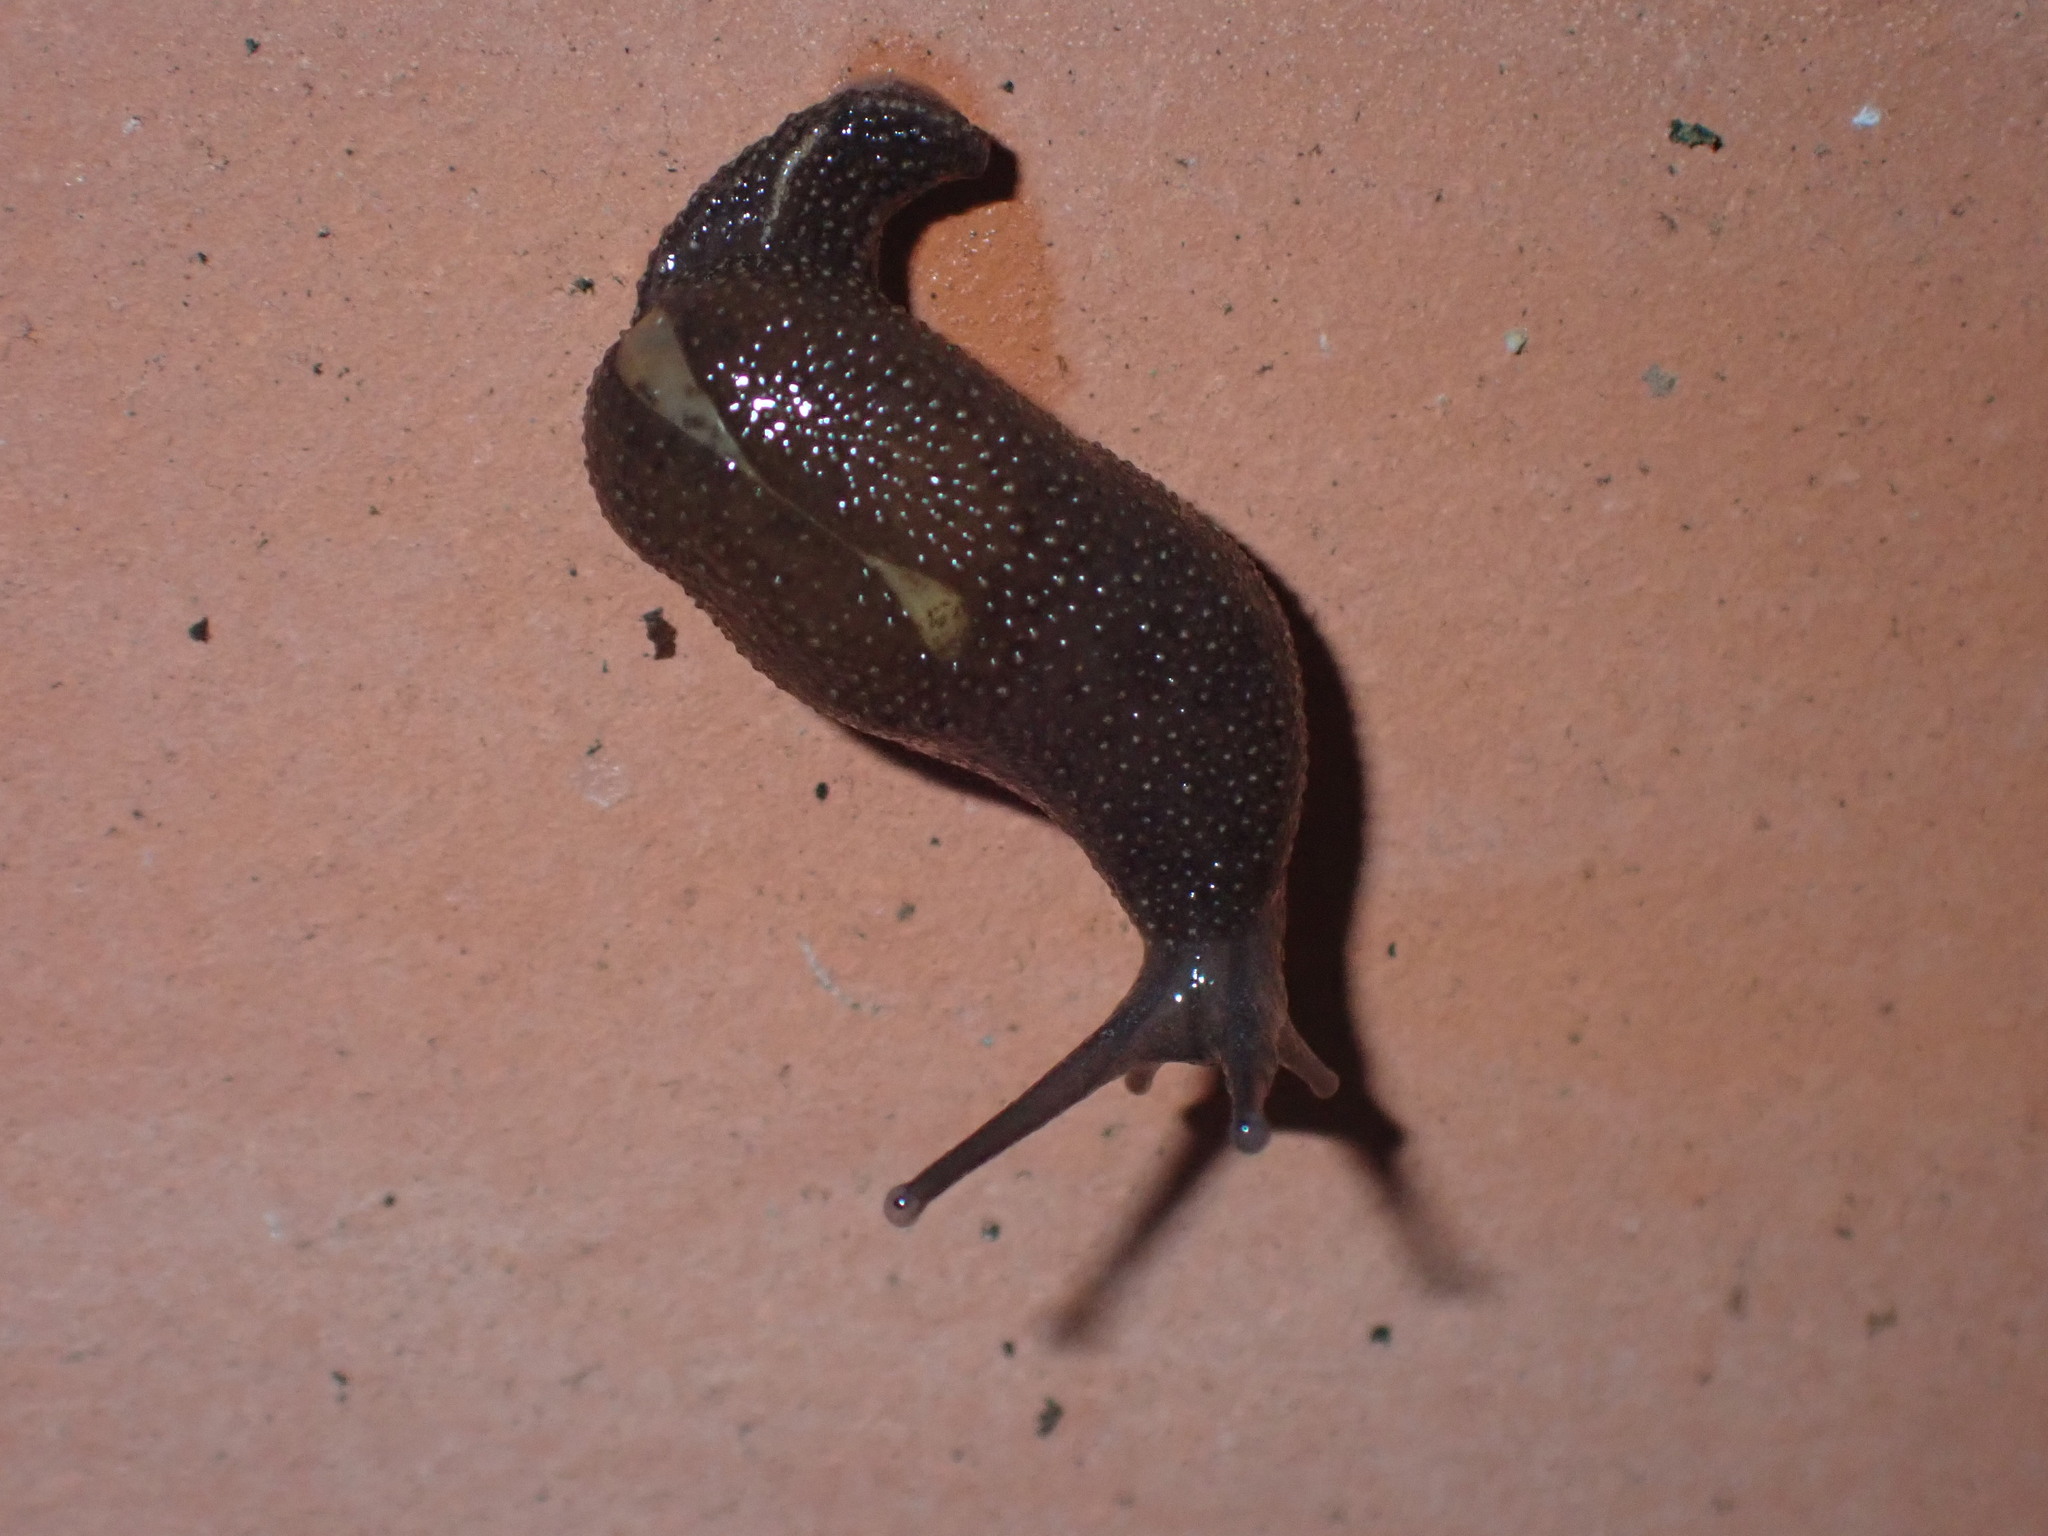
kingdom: Animalia
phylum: Mollusca
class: Gastropoda
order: Stylommatophora
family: Ariophantidae
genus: Cambodiparmarion
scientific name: Cambodiparmarion doroshenkoi
